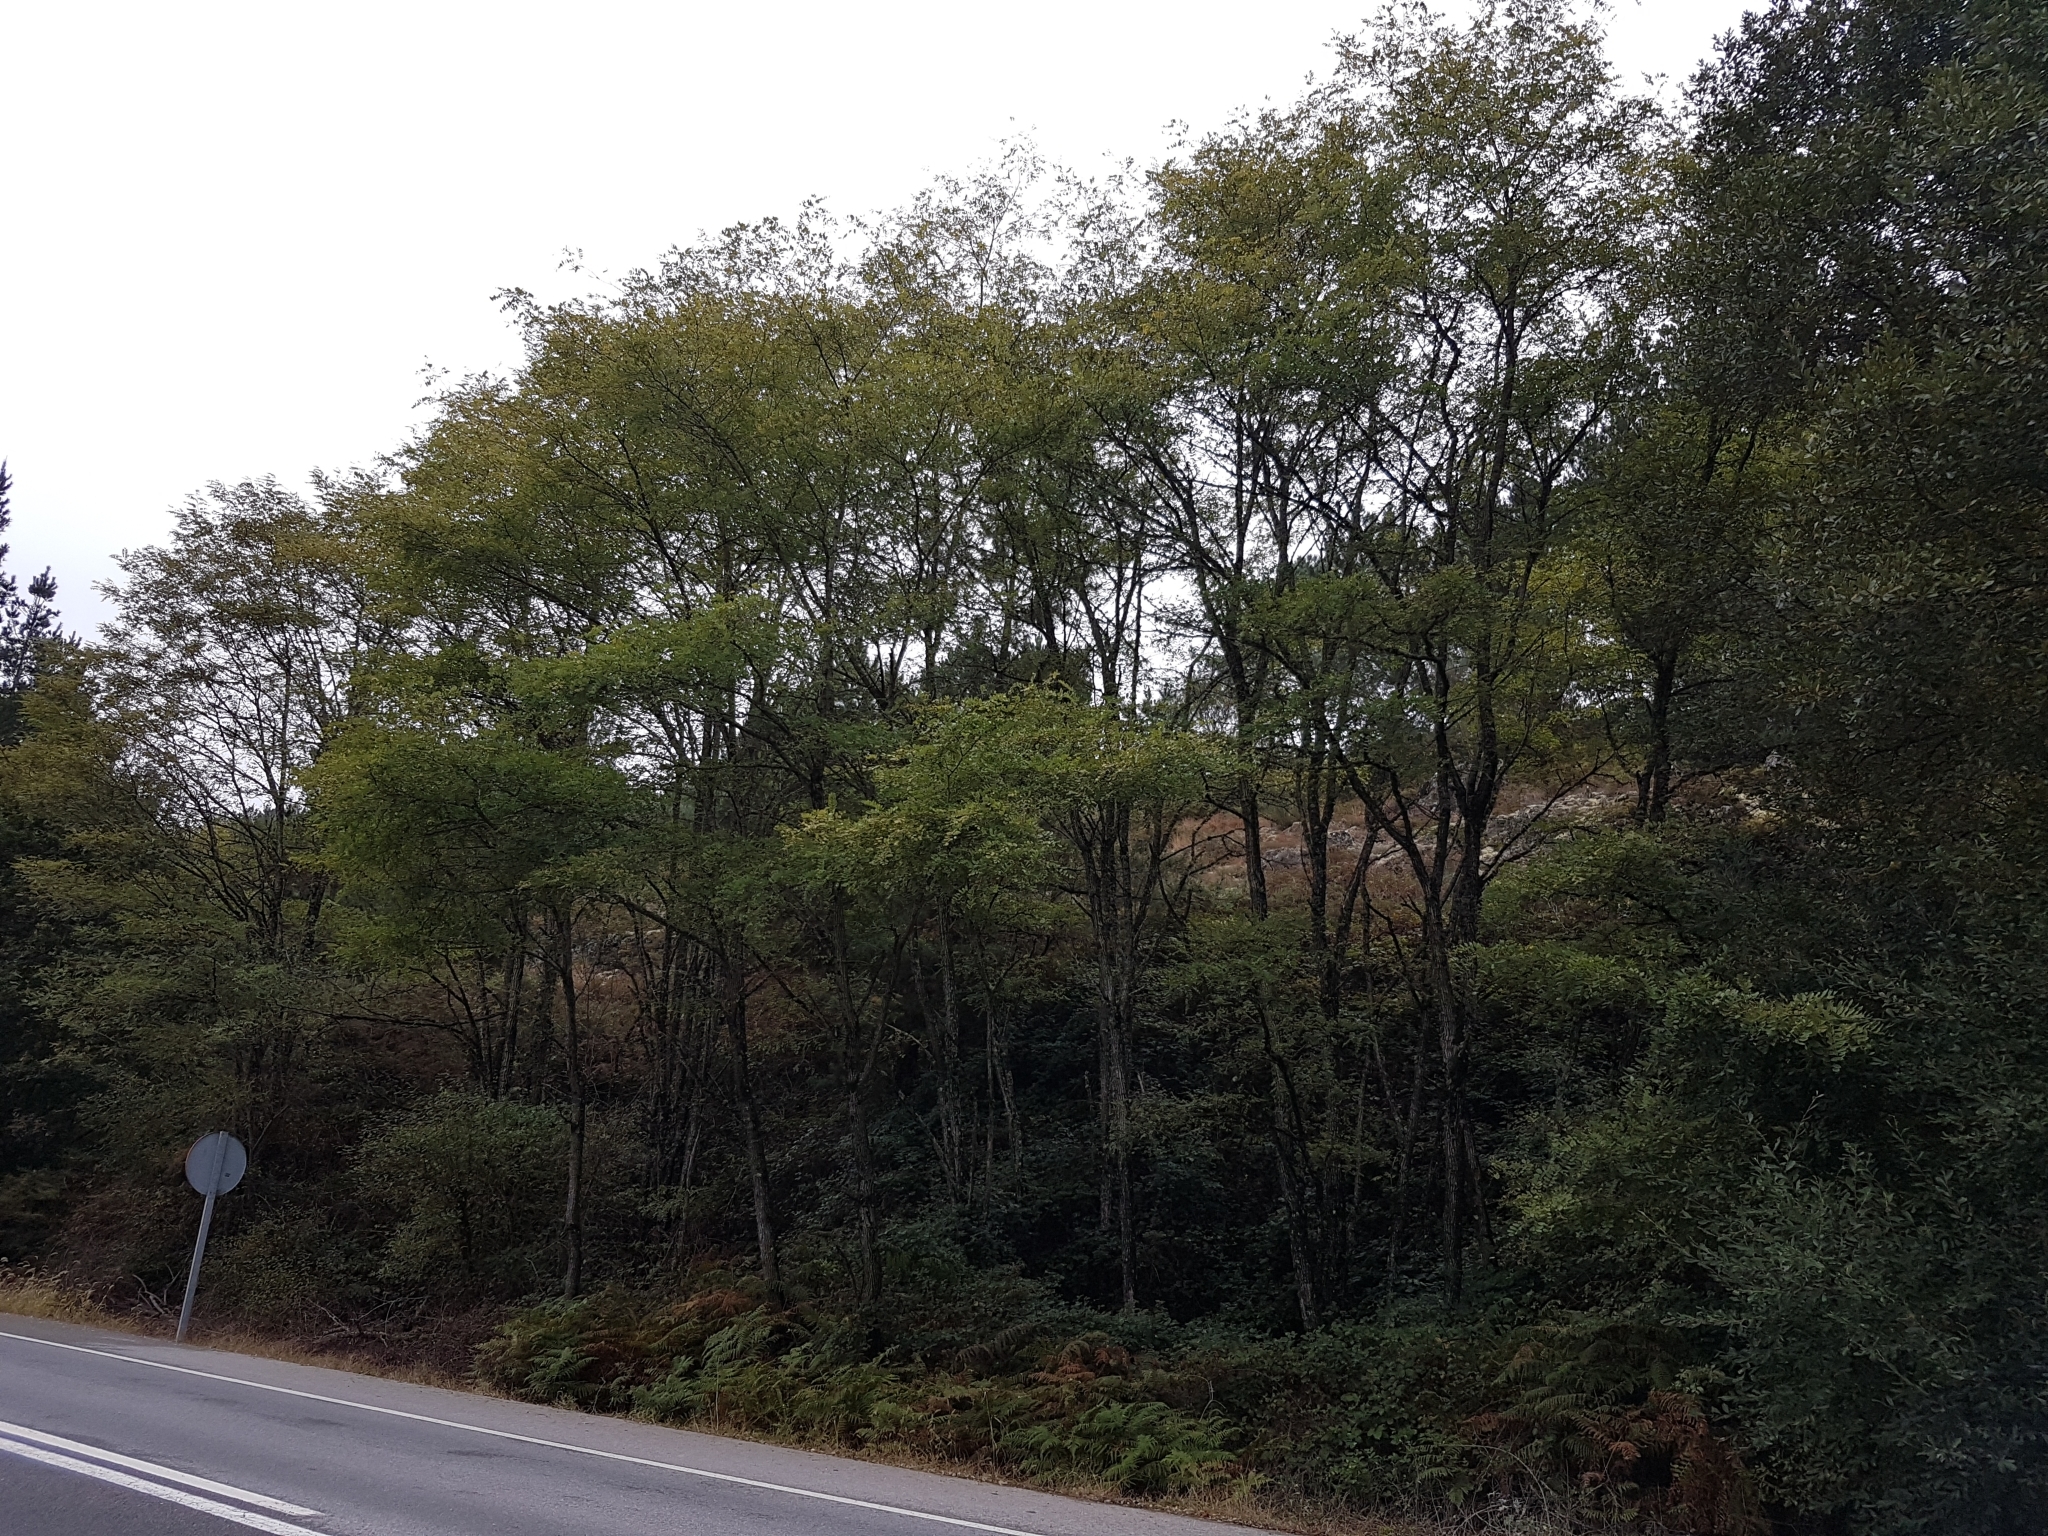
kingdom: Plantae
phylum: Tracheophyta
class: Magnoliopsida
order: Fabales
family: Fabaceae
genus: Robinia
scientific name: Robinia pseudoacacia
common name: Black locust
